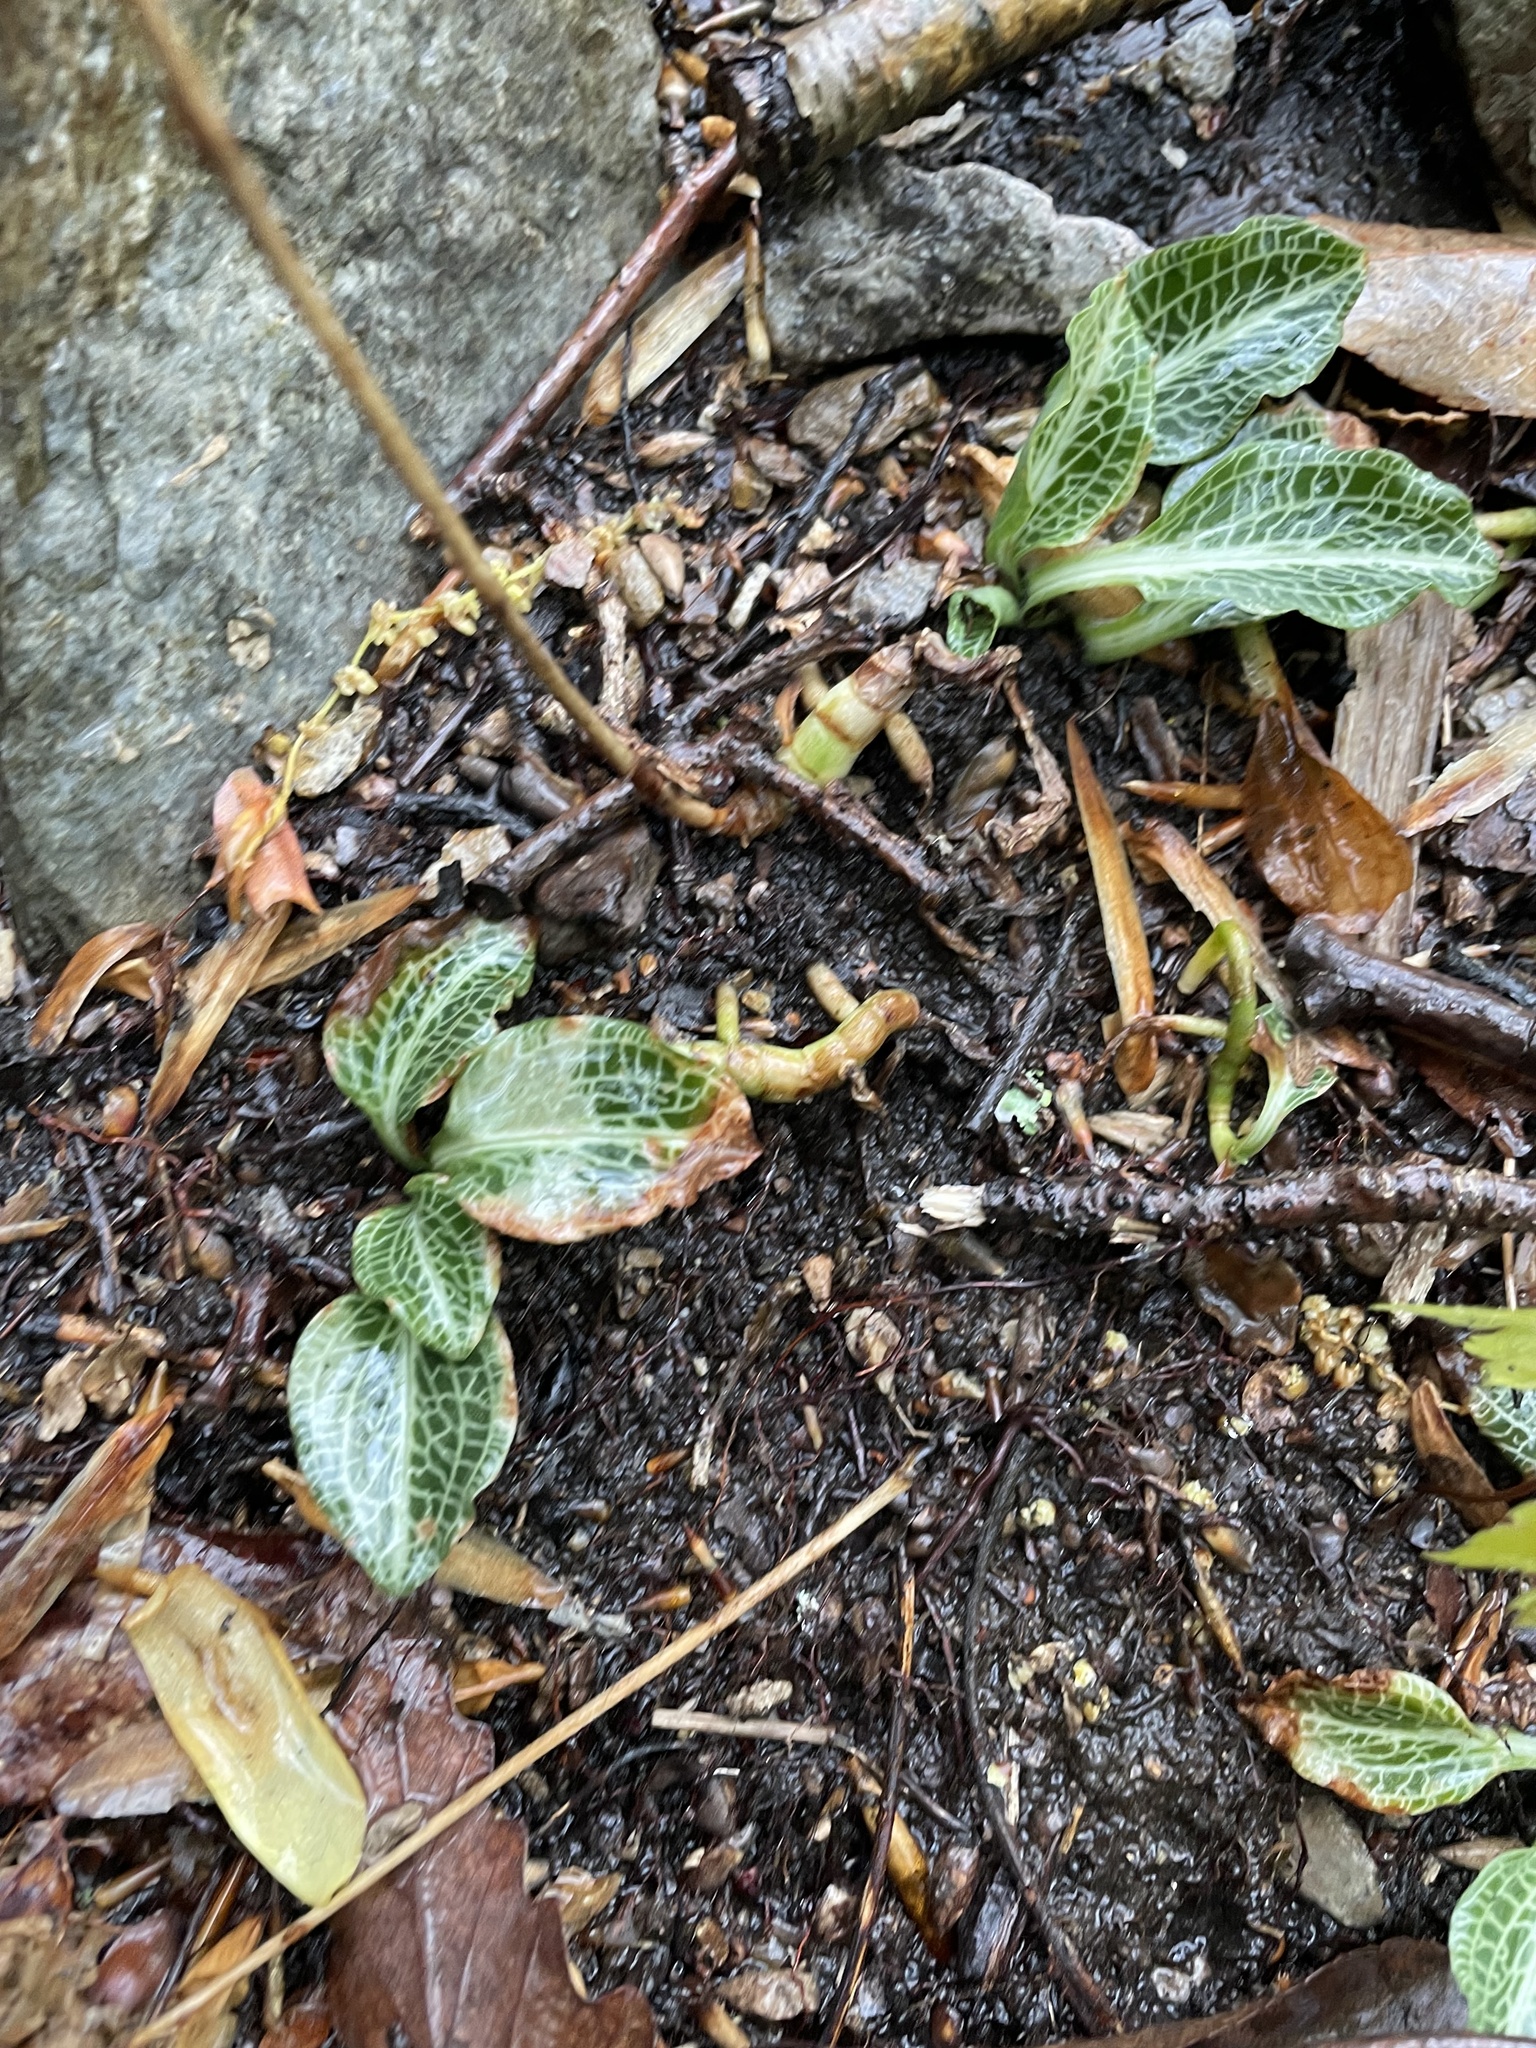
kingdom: Plantae
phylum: Tracheophyta
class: Liliopsida
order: Asparagales
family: Orchidaceae
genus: Goodyera
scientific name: Goodyera pubescens
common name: Downy rattlesnake-plantain
